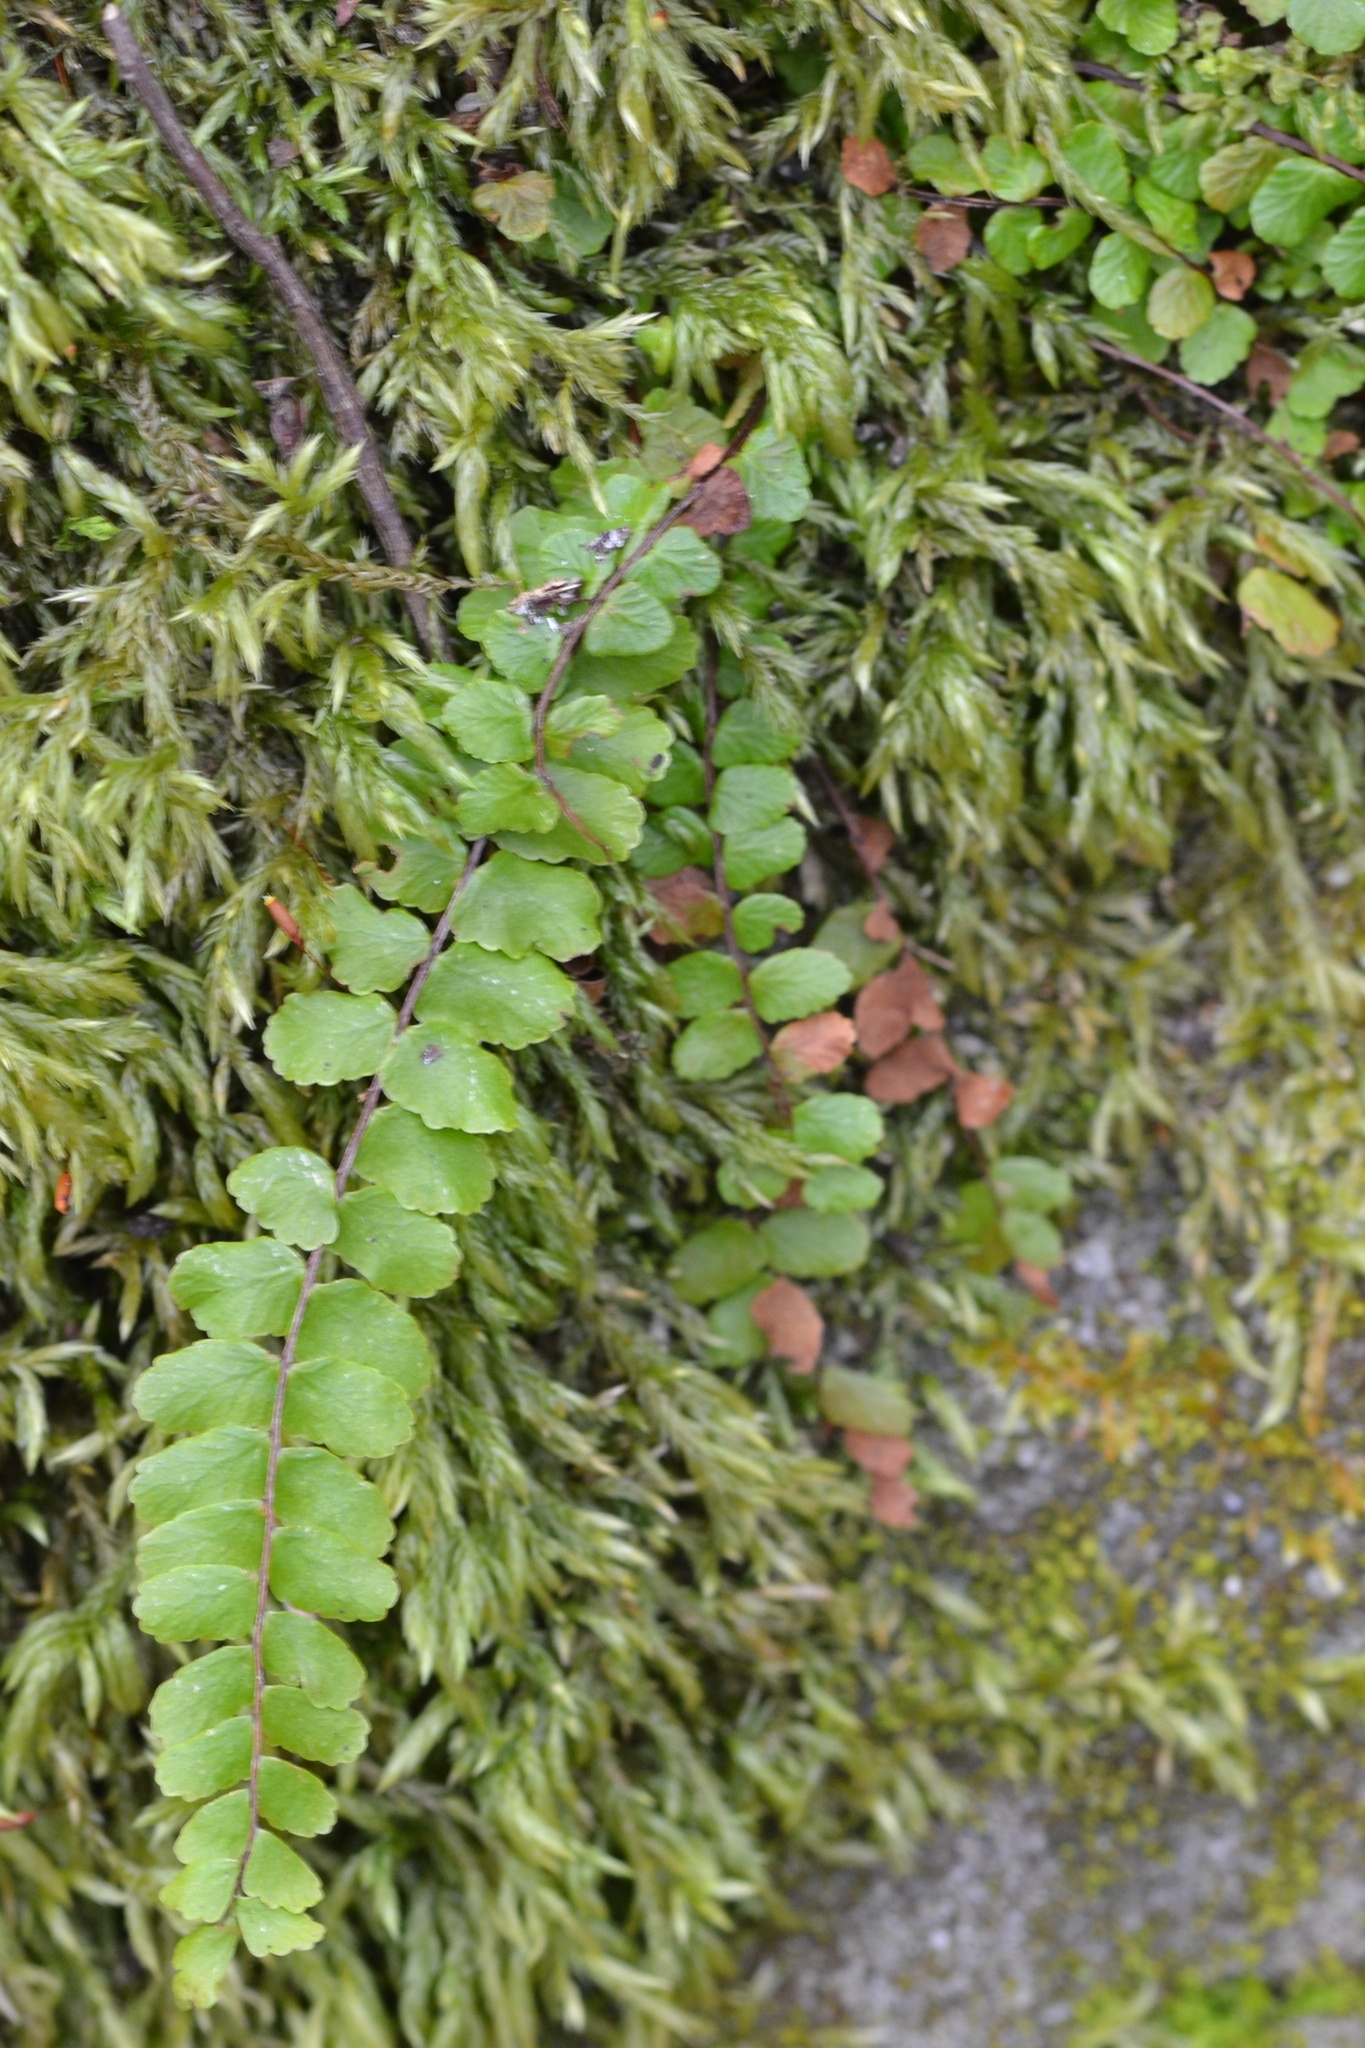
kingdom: Plantae
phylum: Tracheophyta
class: Polypodiopsida
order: Polypodiales
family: Aspleniaceae
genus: Asplenium
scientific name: Asplenium trichomanes
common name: Maidenhair spleenwort
